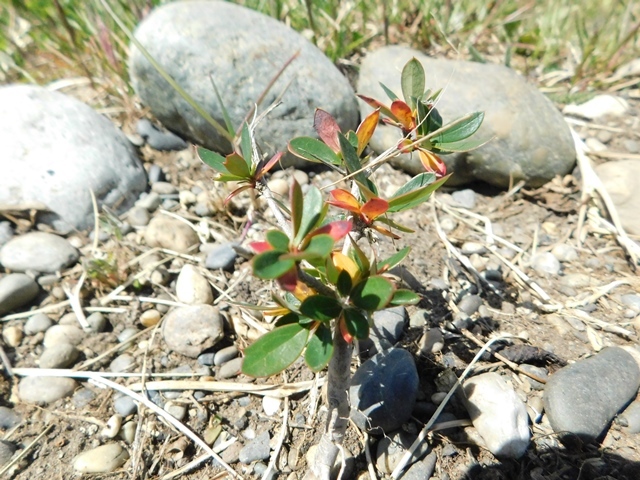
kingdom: Plantae
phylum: Tracheophyta
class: Magnoliopsida
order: Ranunculales
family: Berberidaceae
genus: Berberis
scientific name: Berberis ilicifolia
